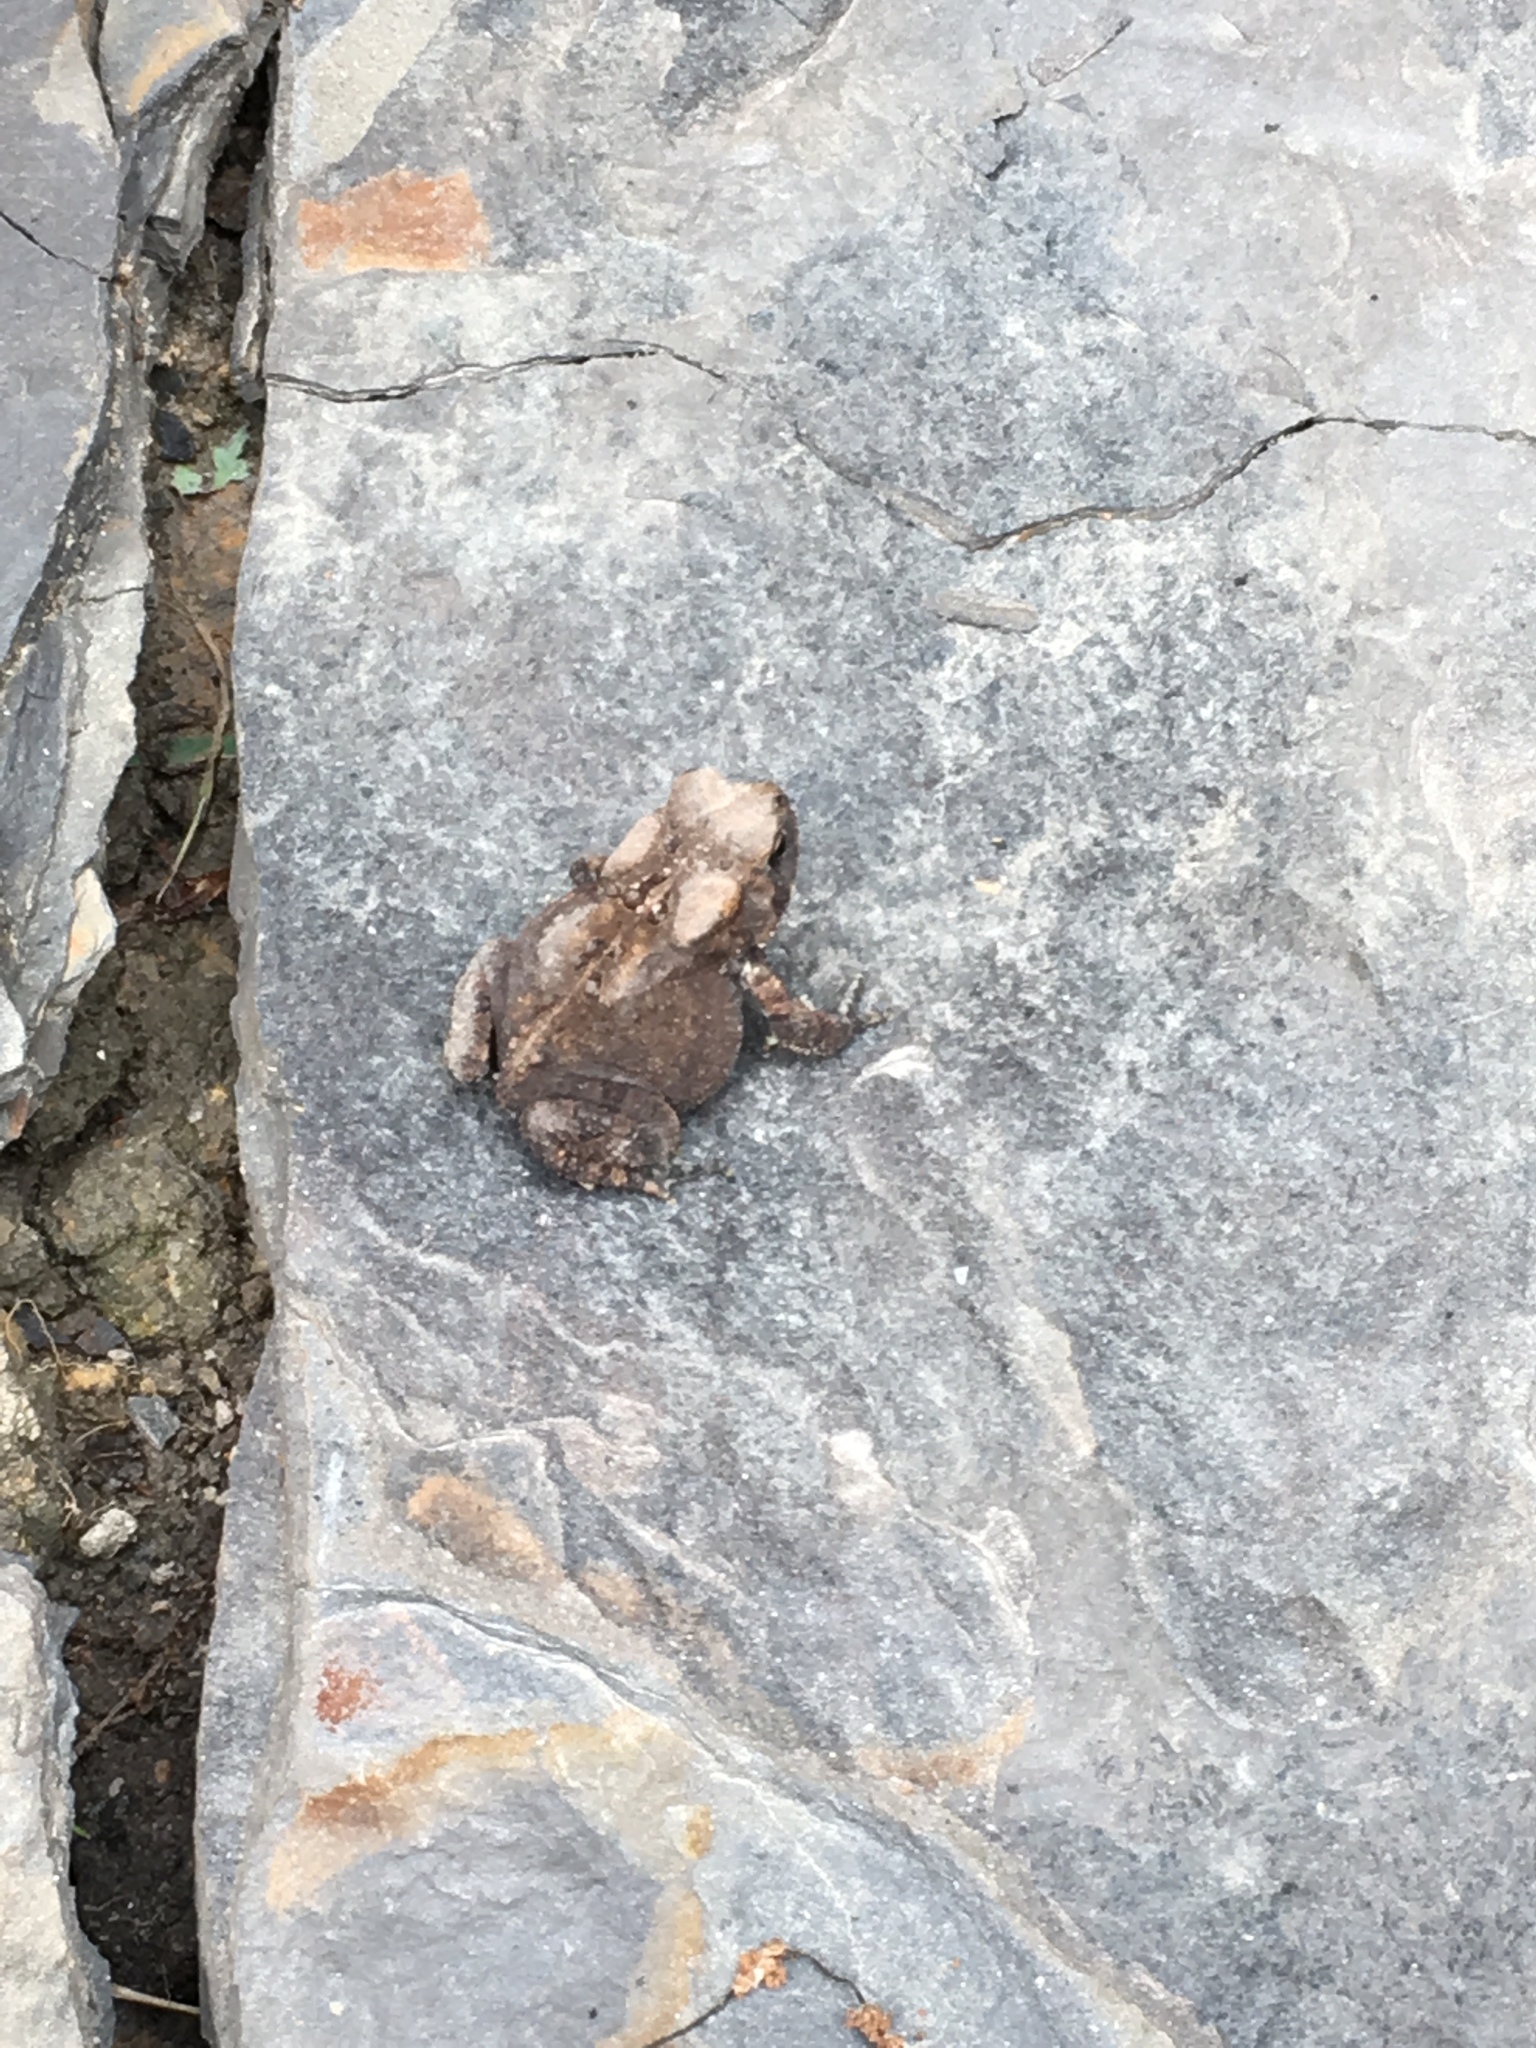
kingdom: Animalia
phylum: Chordata
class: Amphibia
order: Anura
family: Bufonidae
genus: Anaxyrus
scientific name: Anaxyrus americanus
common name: American toad
